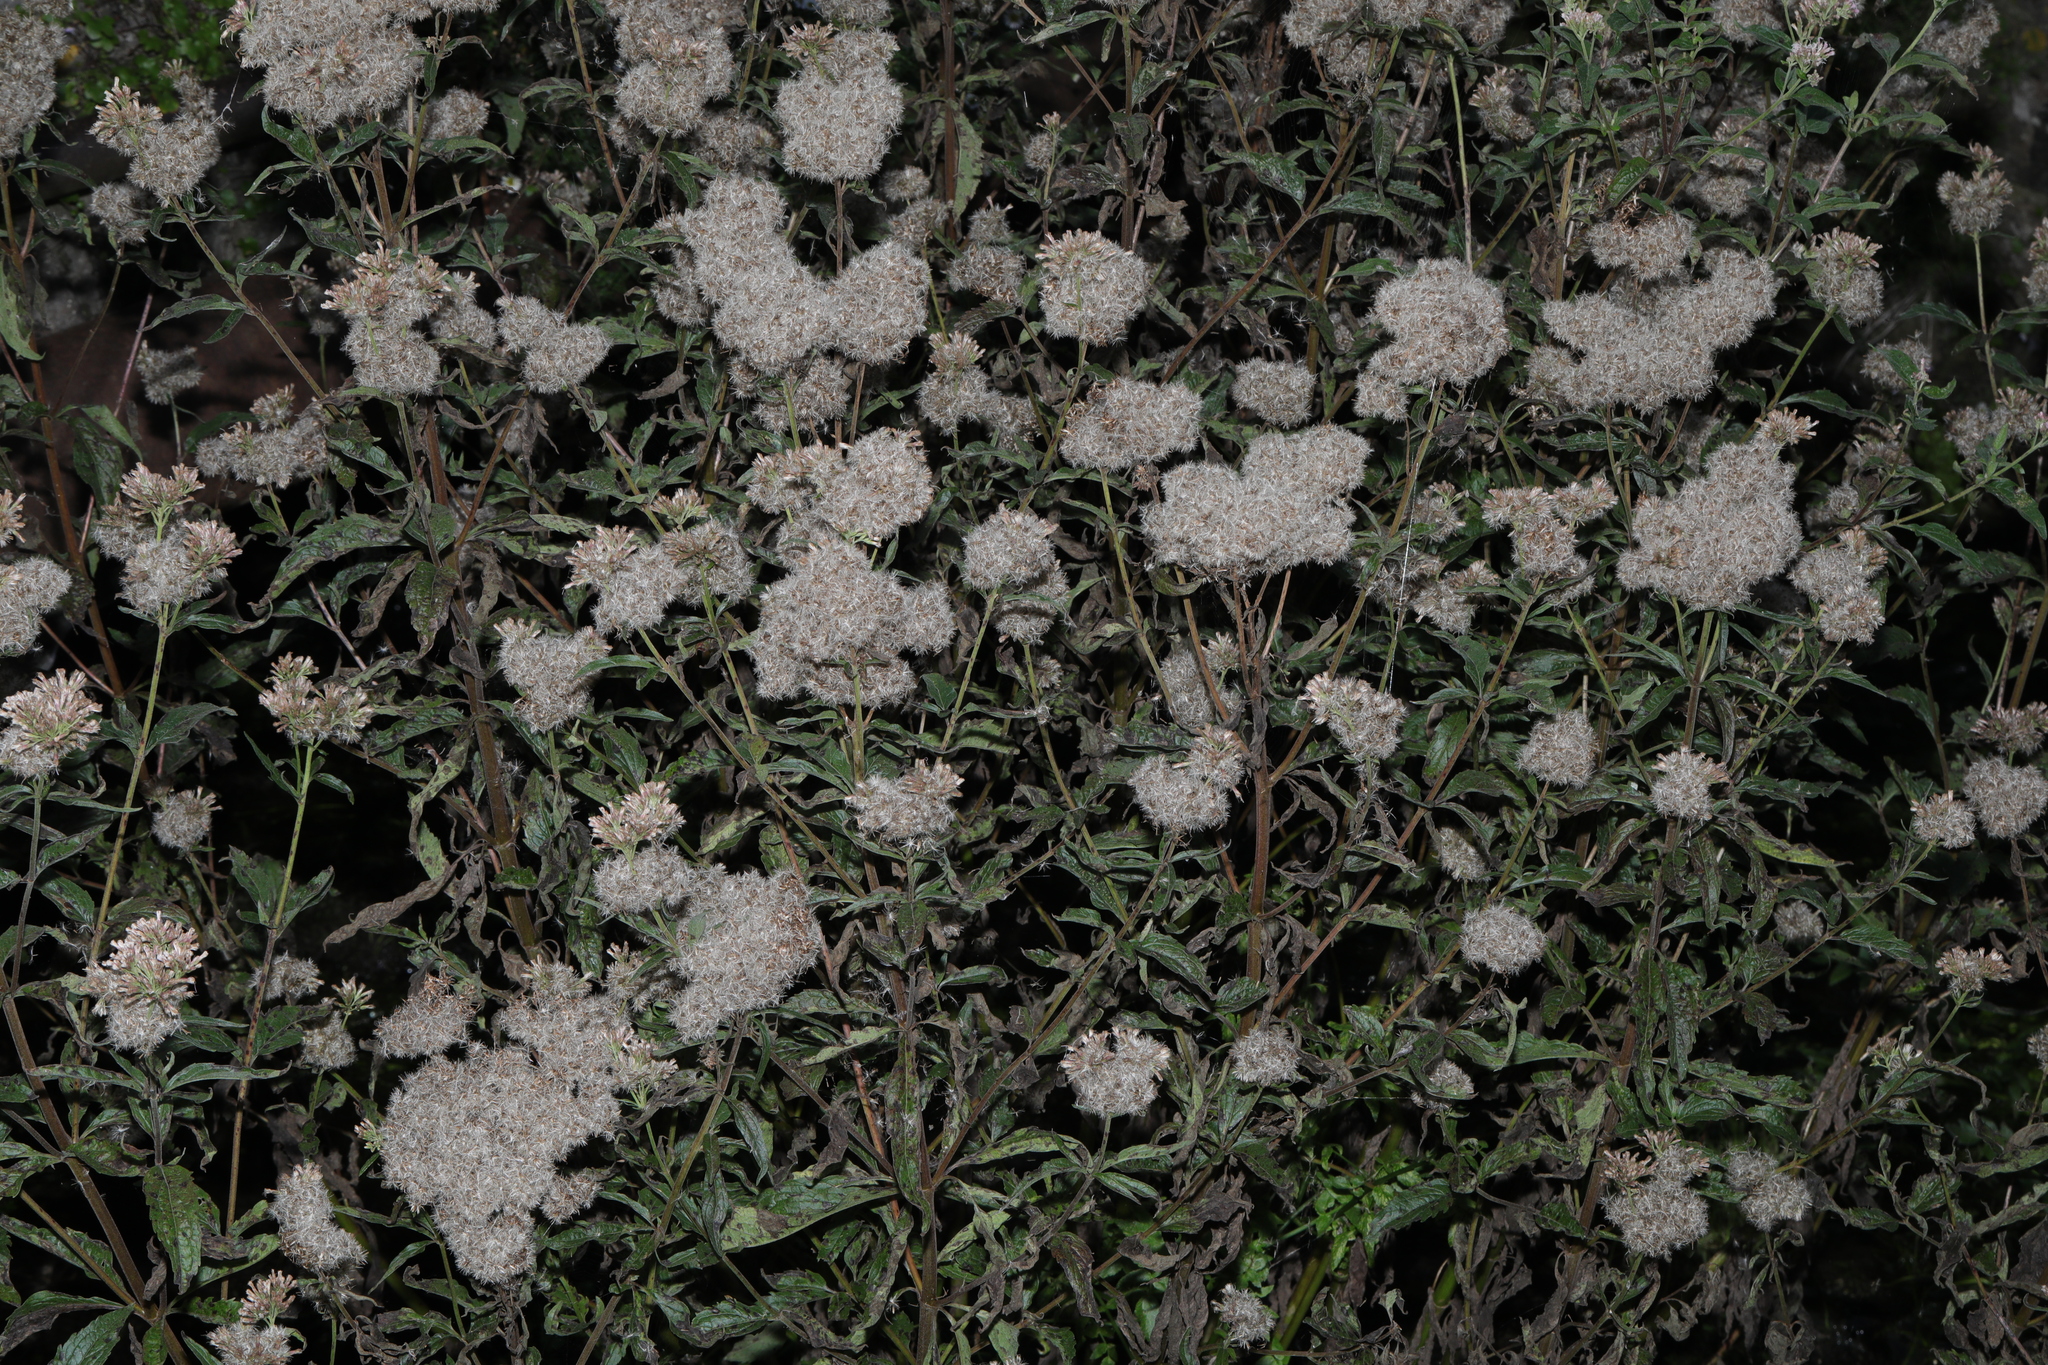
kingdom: Plantae
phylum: Tracheophyta
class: Magnoliopsida
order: Asterales
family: Asteraceae
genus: Eupatorium
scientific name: Eupatorium cannabinum
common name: Hemp-agrimony
